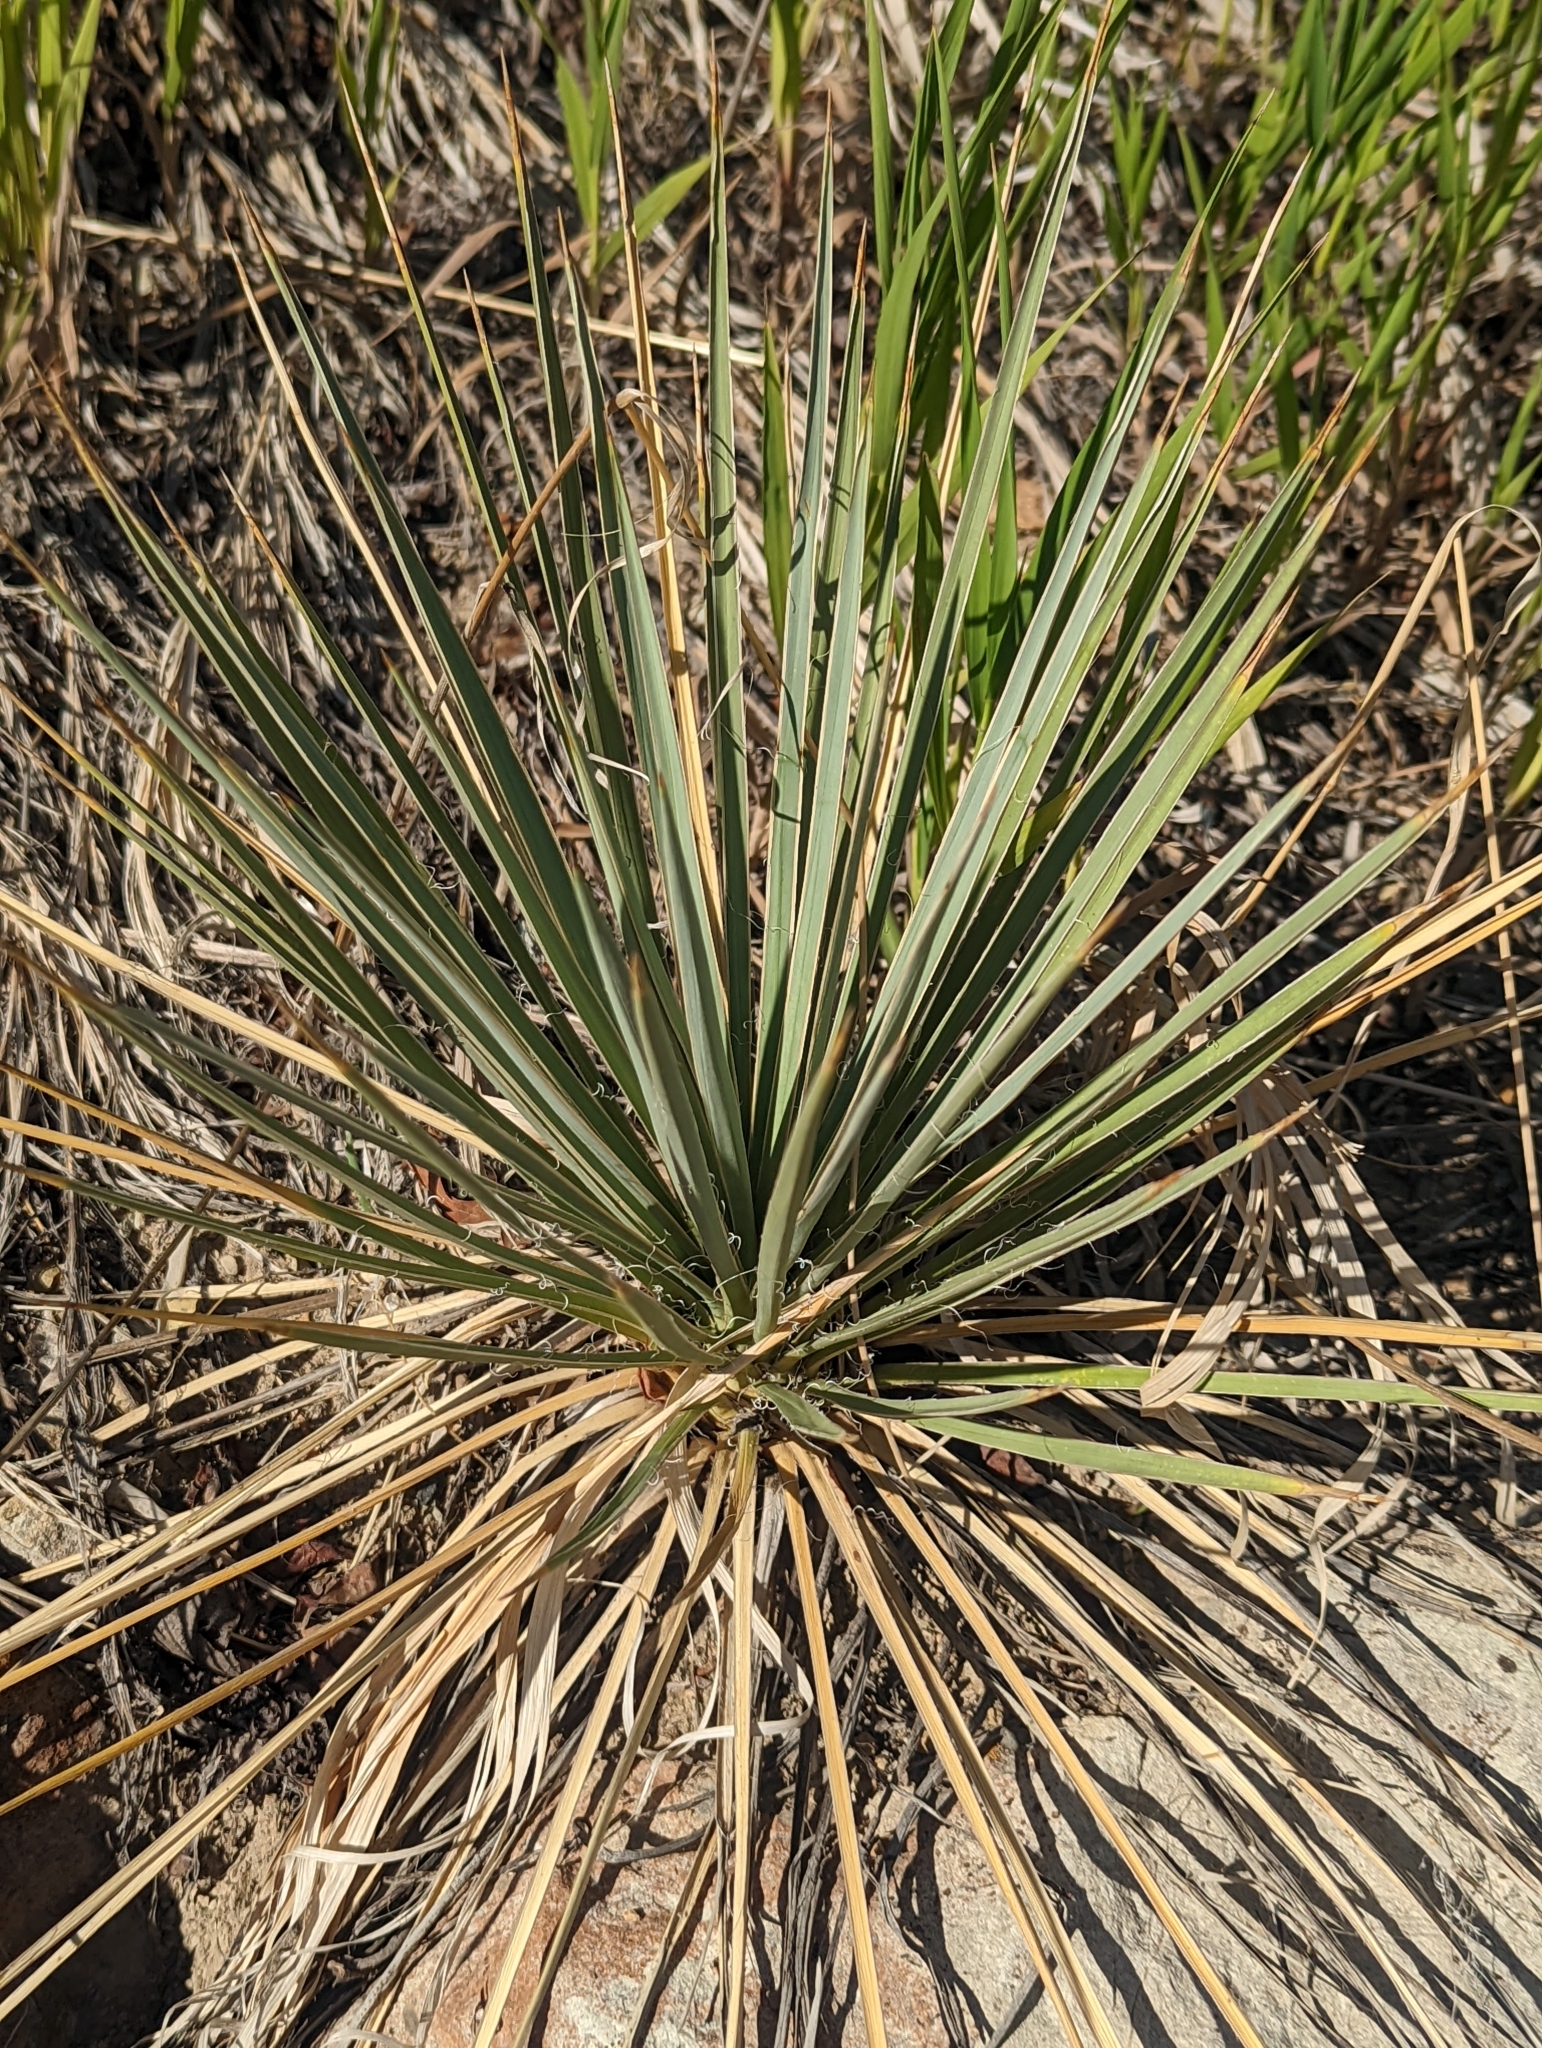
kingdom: Plantae
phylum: Tracheophyta
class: Liliopsida
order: Asparagales
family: Asparagaceae
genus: Yucca
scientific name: Yucca glauca
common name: Great plains yucca
